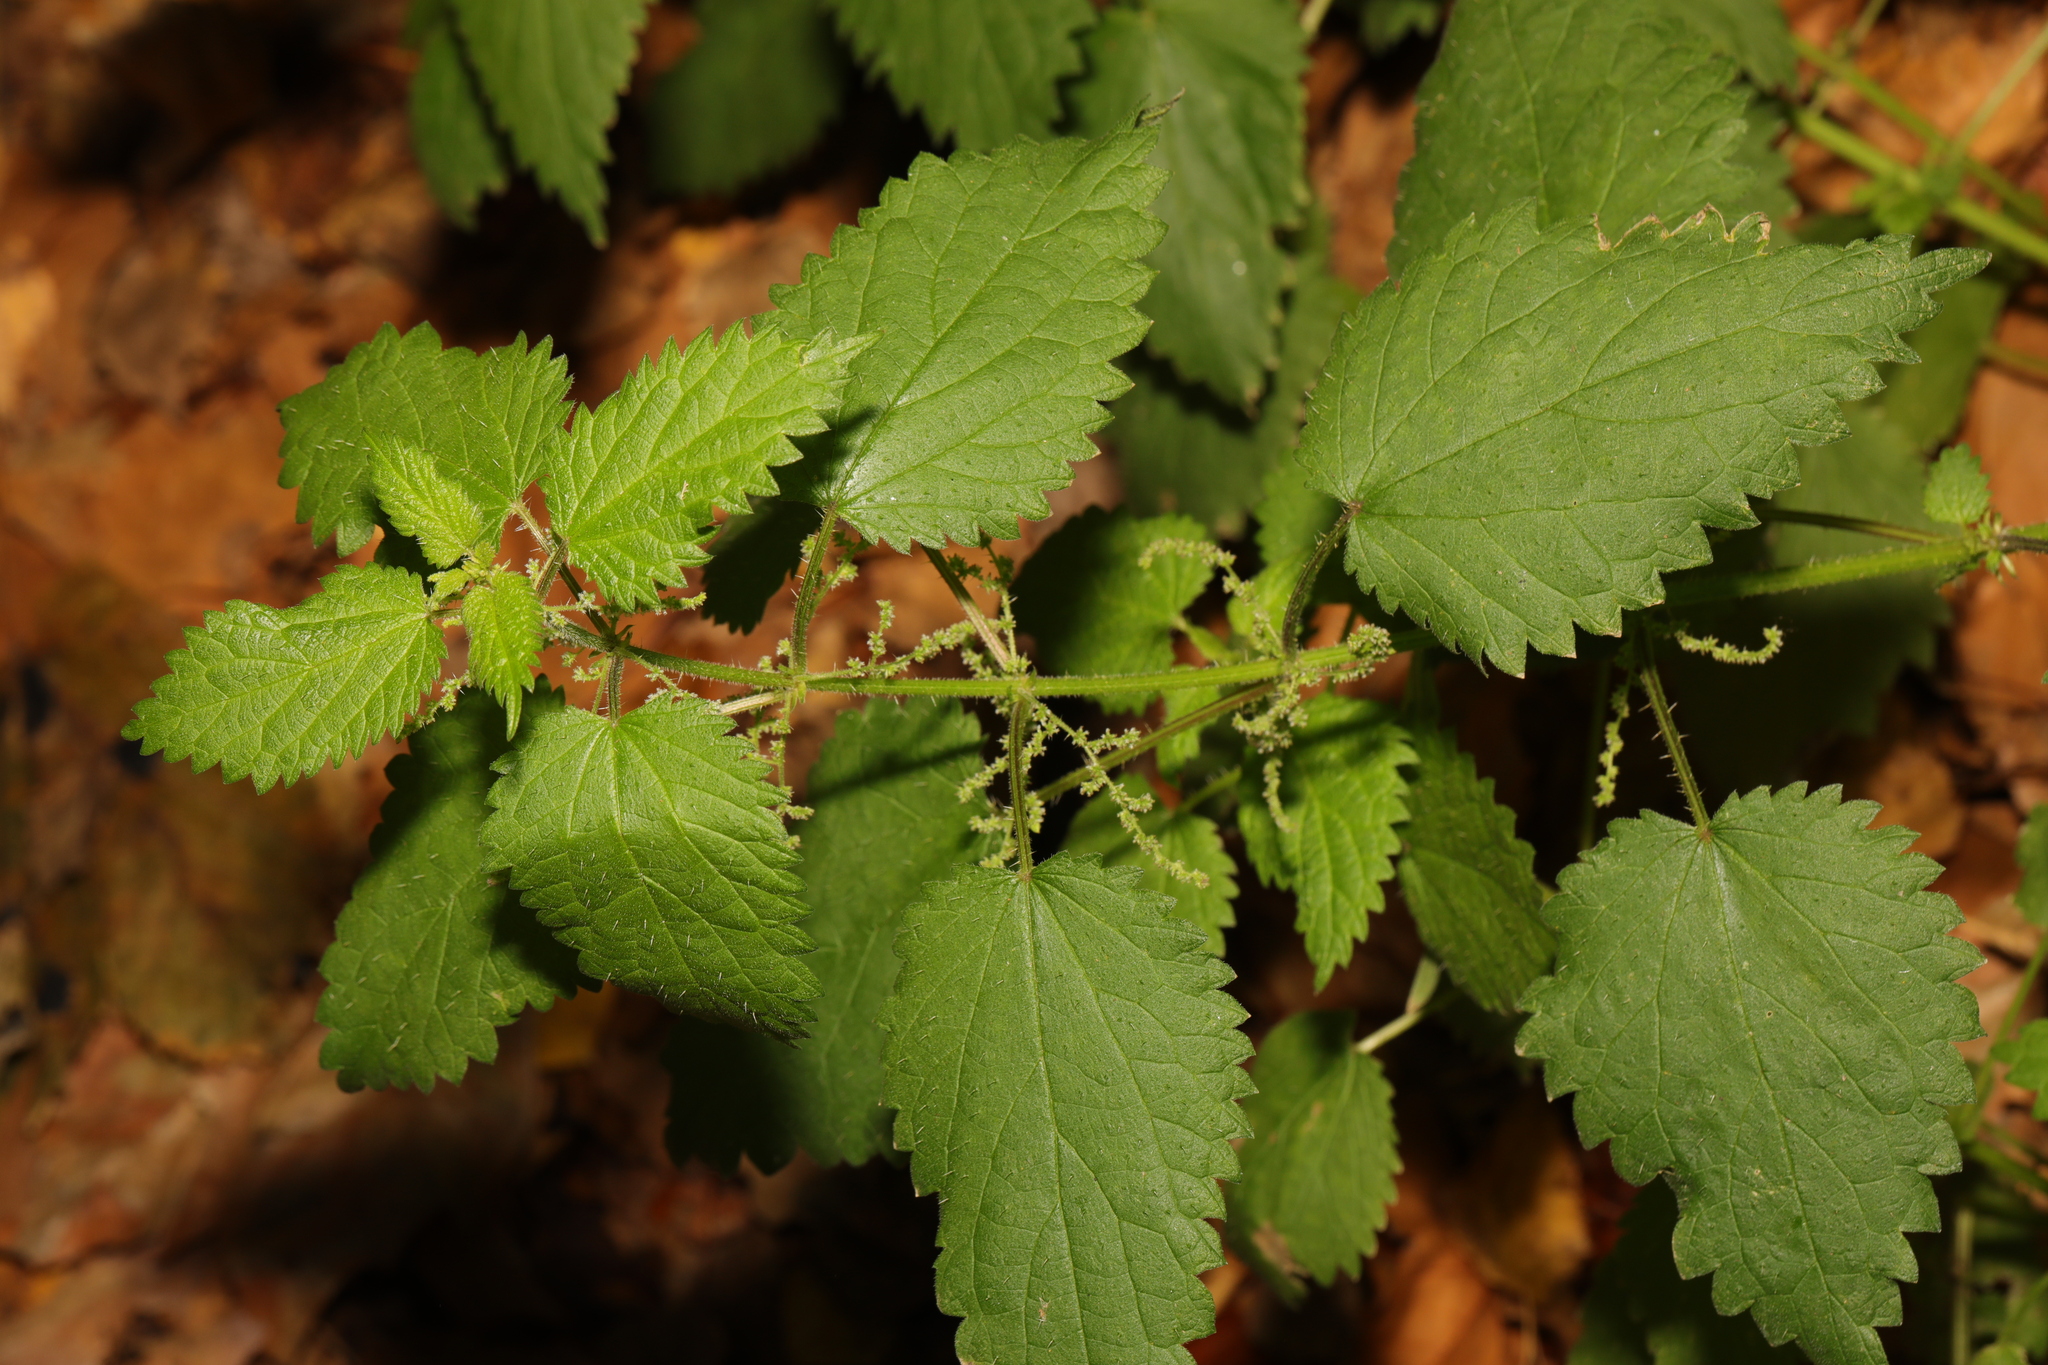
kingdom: Plantae
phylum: Tracheophyta
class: Magnoliopsida
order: Rosales
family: Urticaceae
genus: Urtica
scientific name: Urtica dioica
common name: Common nettle
